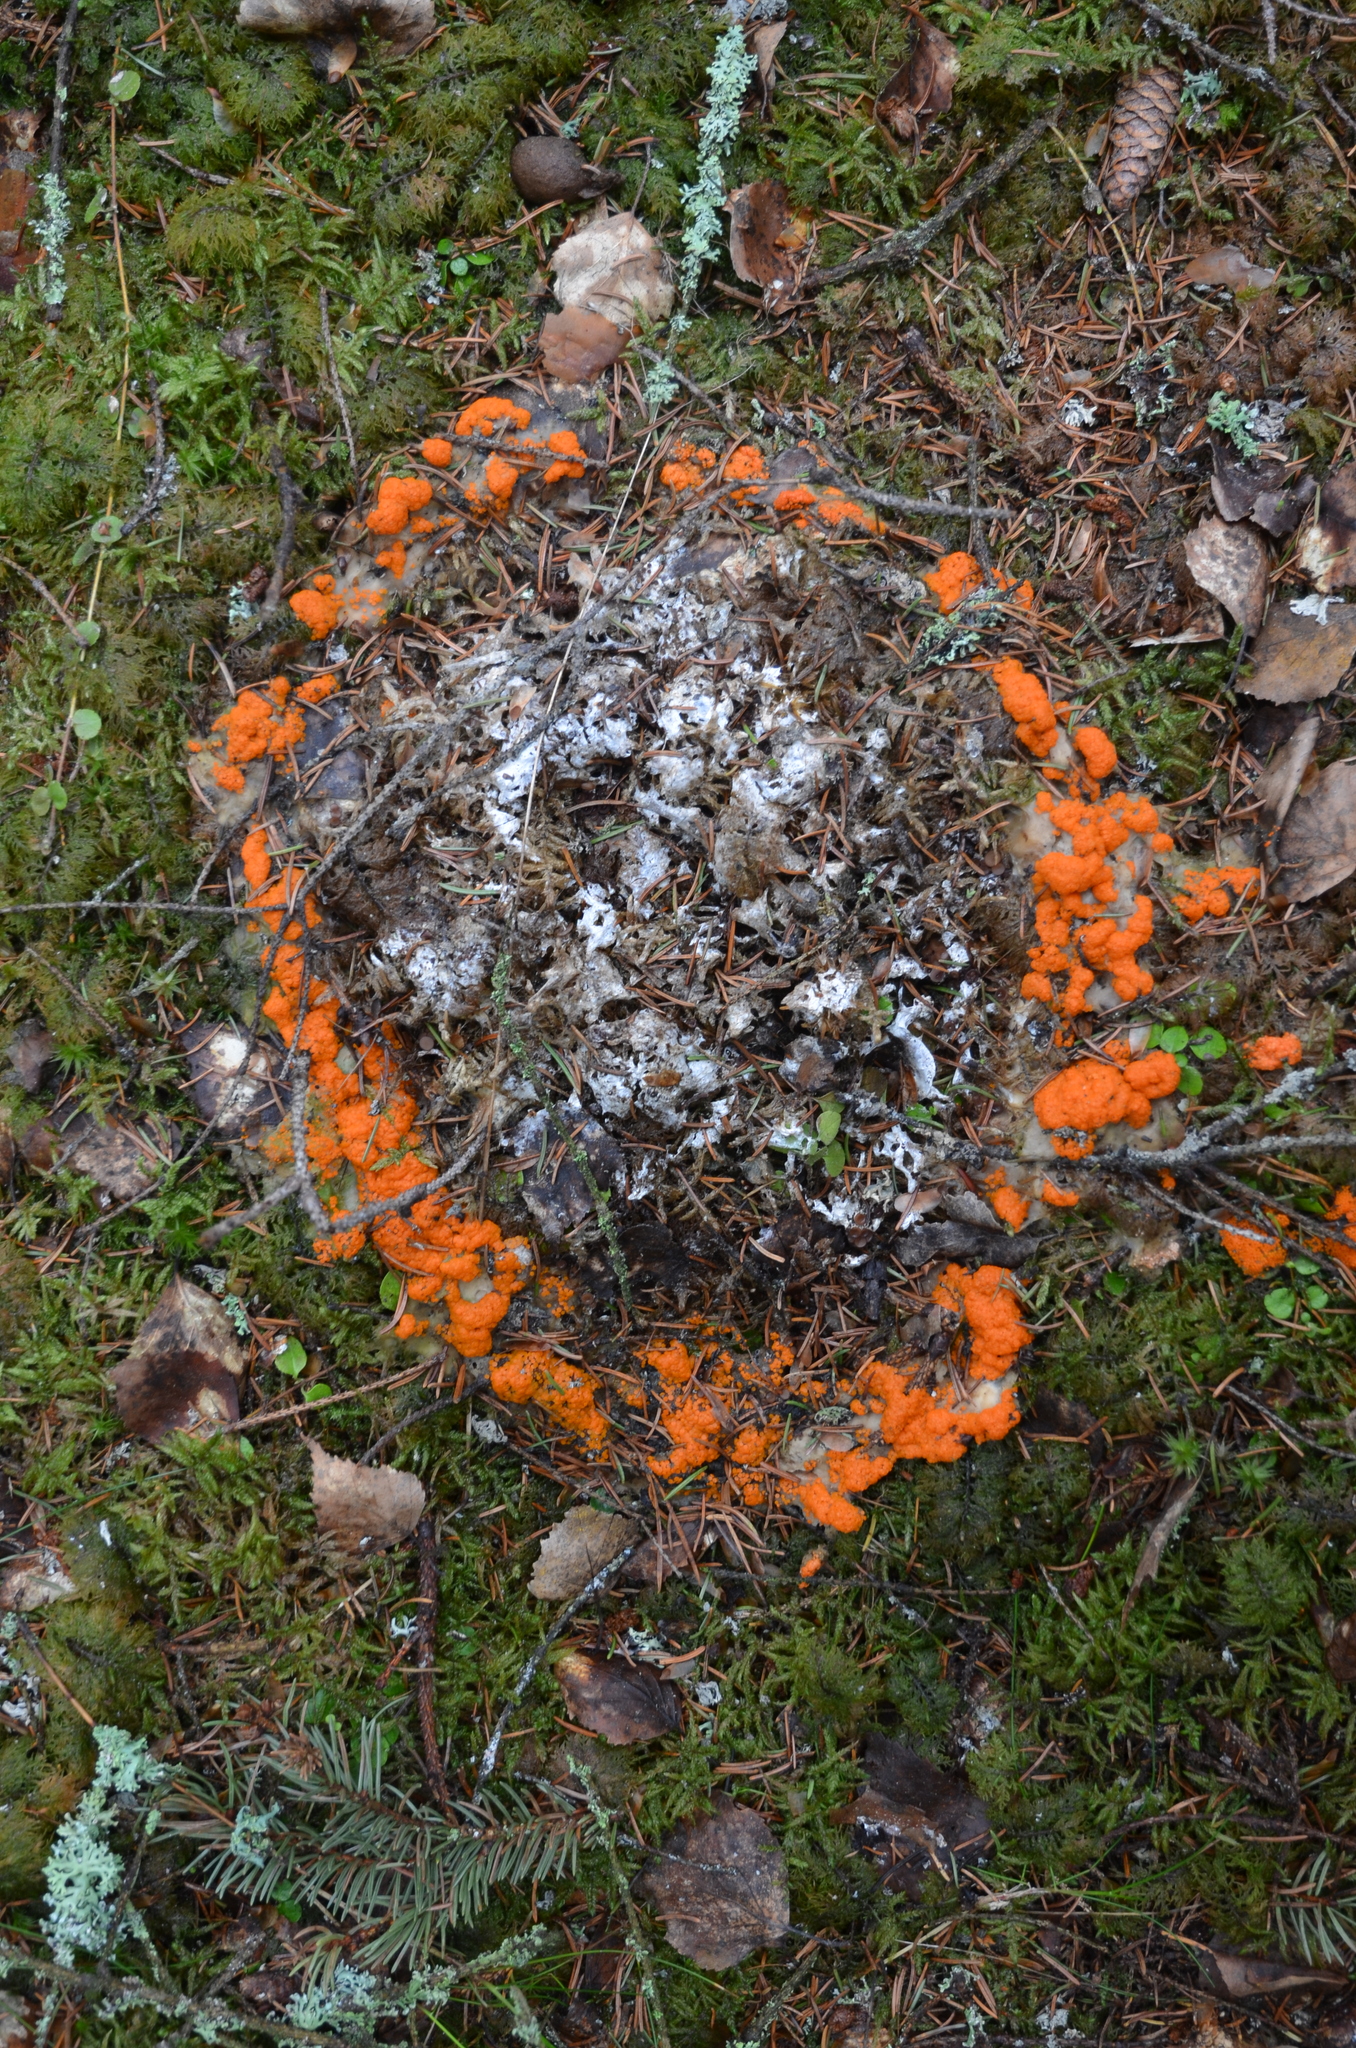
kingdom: Fungi
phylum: Ascomycota
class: Pezizomycetes
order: Pezizales
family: Pyronemataceae
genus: Byssonectria
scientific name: Byssonectria terrestris
